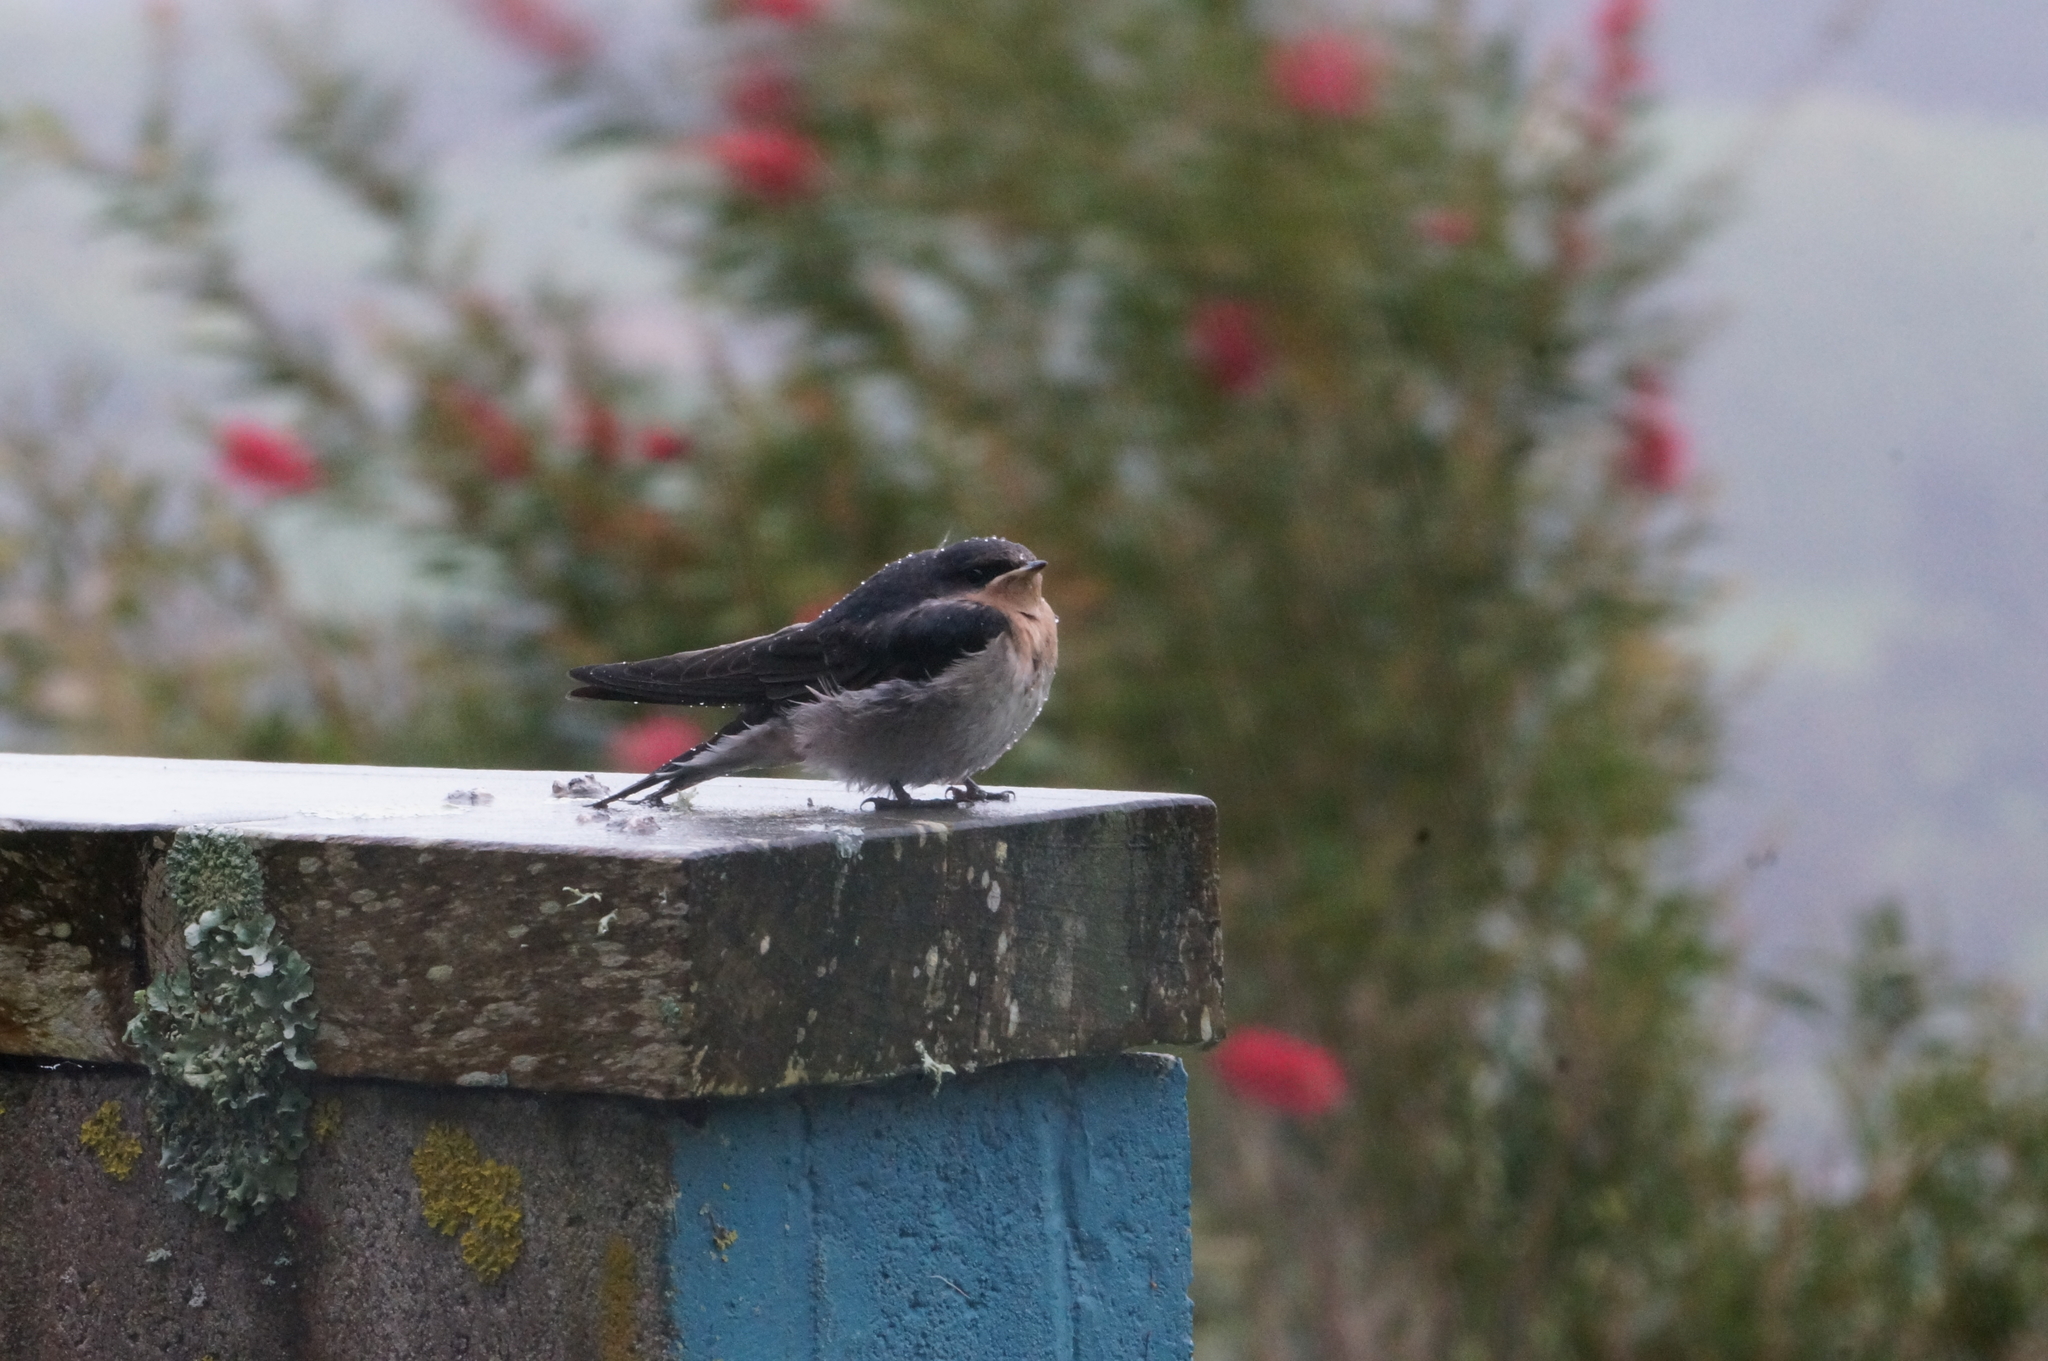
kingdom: Animalia
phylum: Chordata
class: Aves
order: Passeriformes
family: Hirundinidae
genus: Hirundo
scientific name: Hirundo neoxena
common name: Welcome swallow
